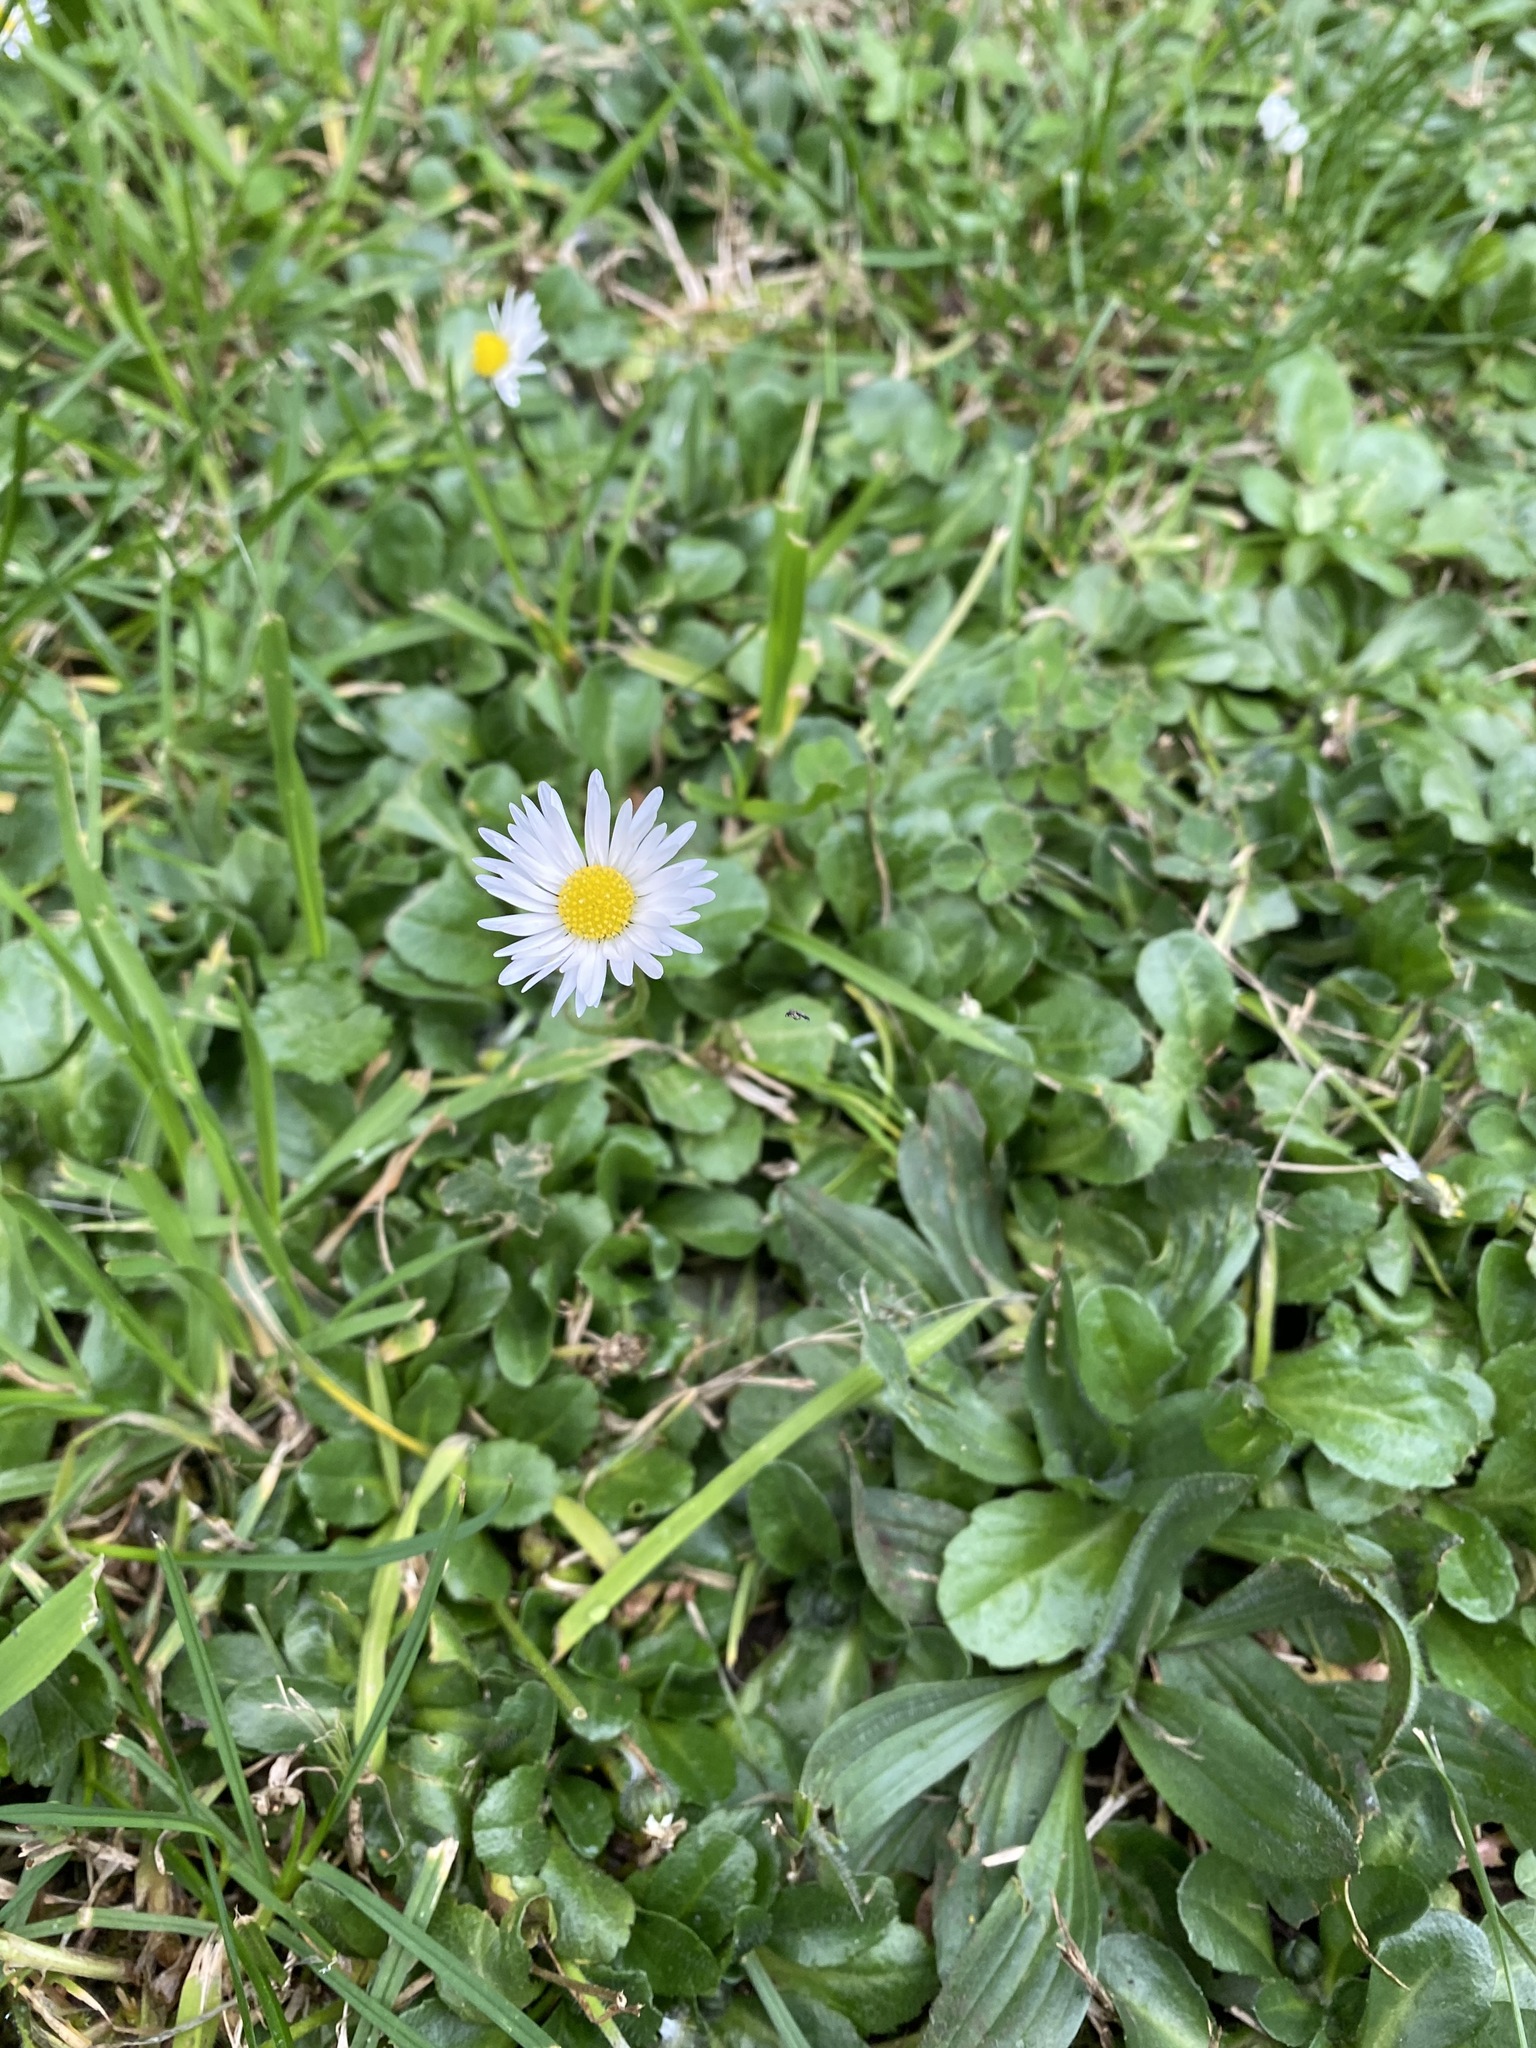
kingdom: Plantae
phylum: Tracheophyta
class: Magnoliopsida
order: Asterales
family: Asteraceae
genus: Bellis
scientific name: Bellis perennis
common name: Lawndaisy
